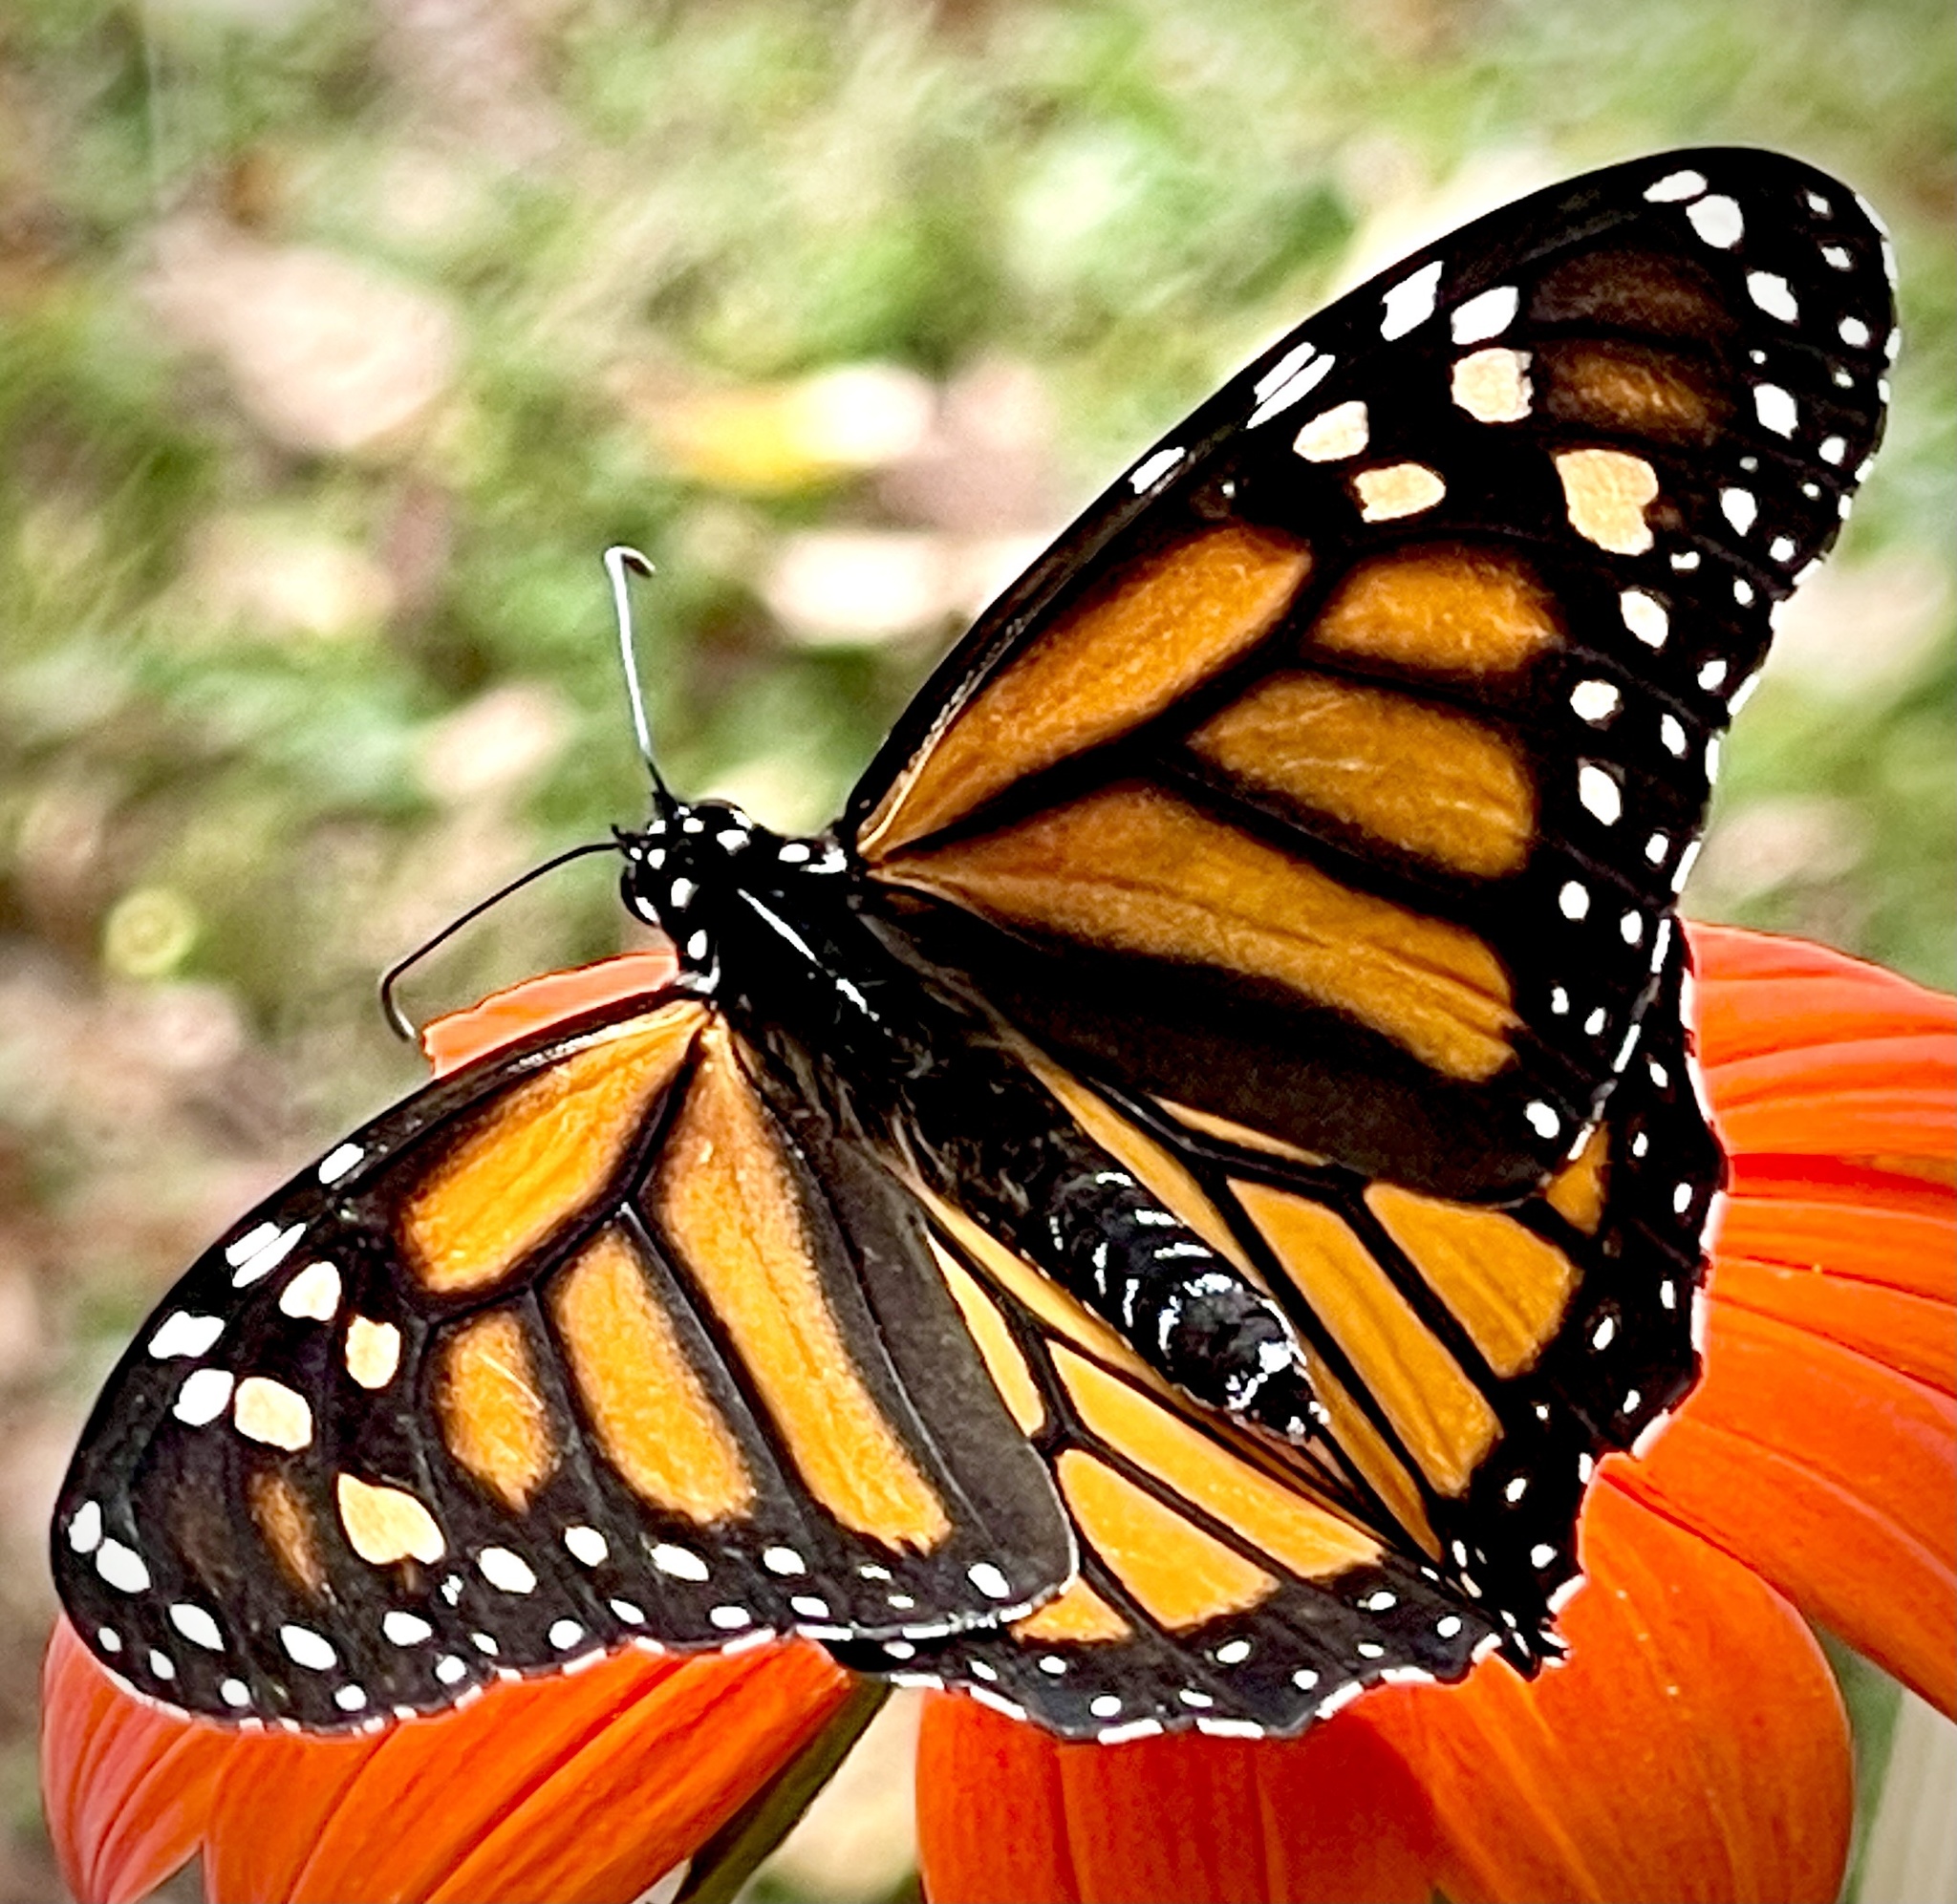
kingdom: Animalia
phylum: Arthropoda
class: Insecta
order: Lepidoptera
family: Nymphalidae
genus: Danaus
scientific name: Danaus plexippus
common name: Monarch
